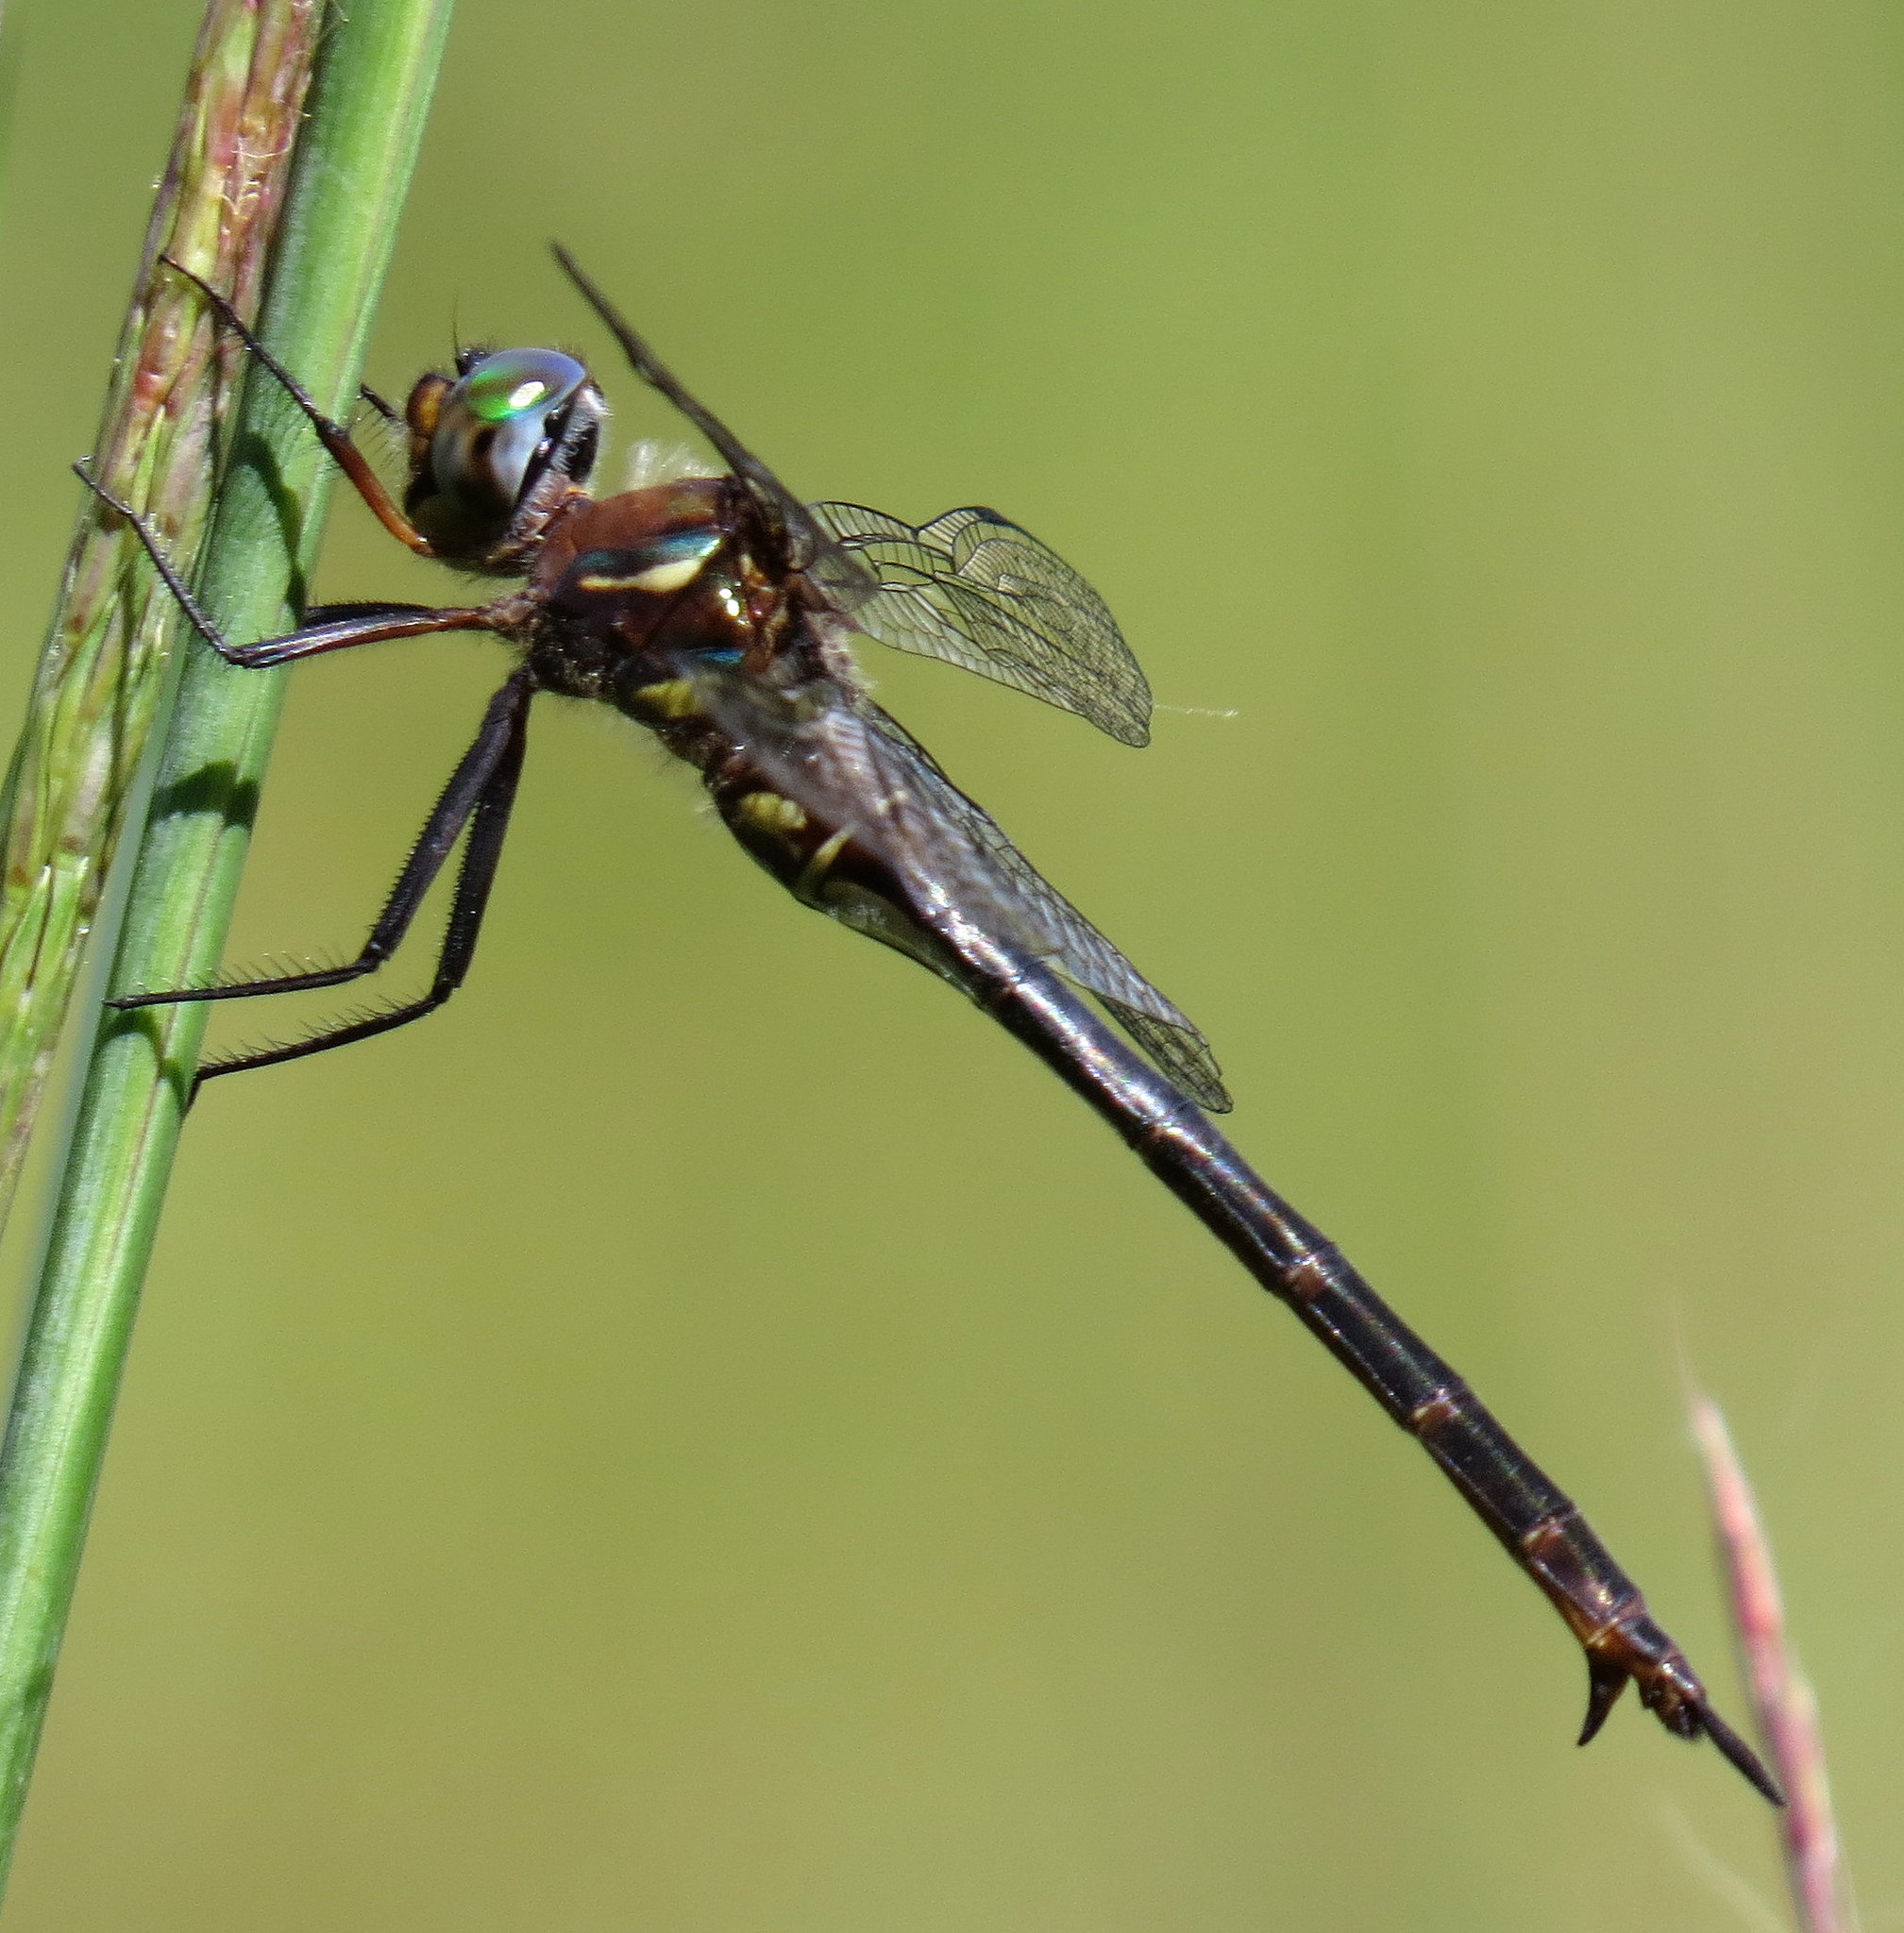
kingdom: Animalia
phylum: Arthropoda
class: Insecta
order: Odonata
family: Corduliidae
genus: Somatochlora
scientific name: Somatochlora tenebrosa
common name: Clamp-tipped emerald
